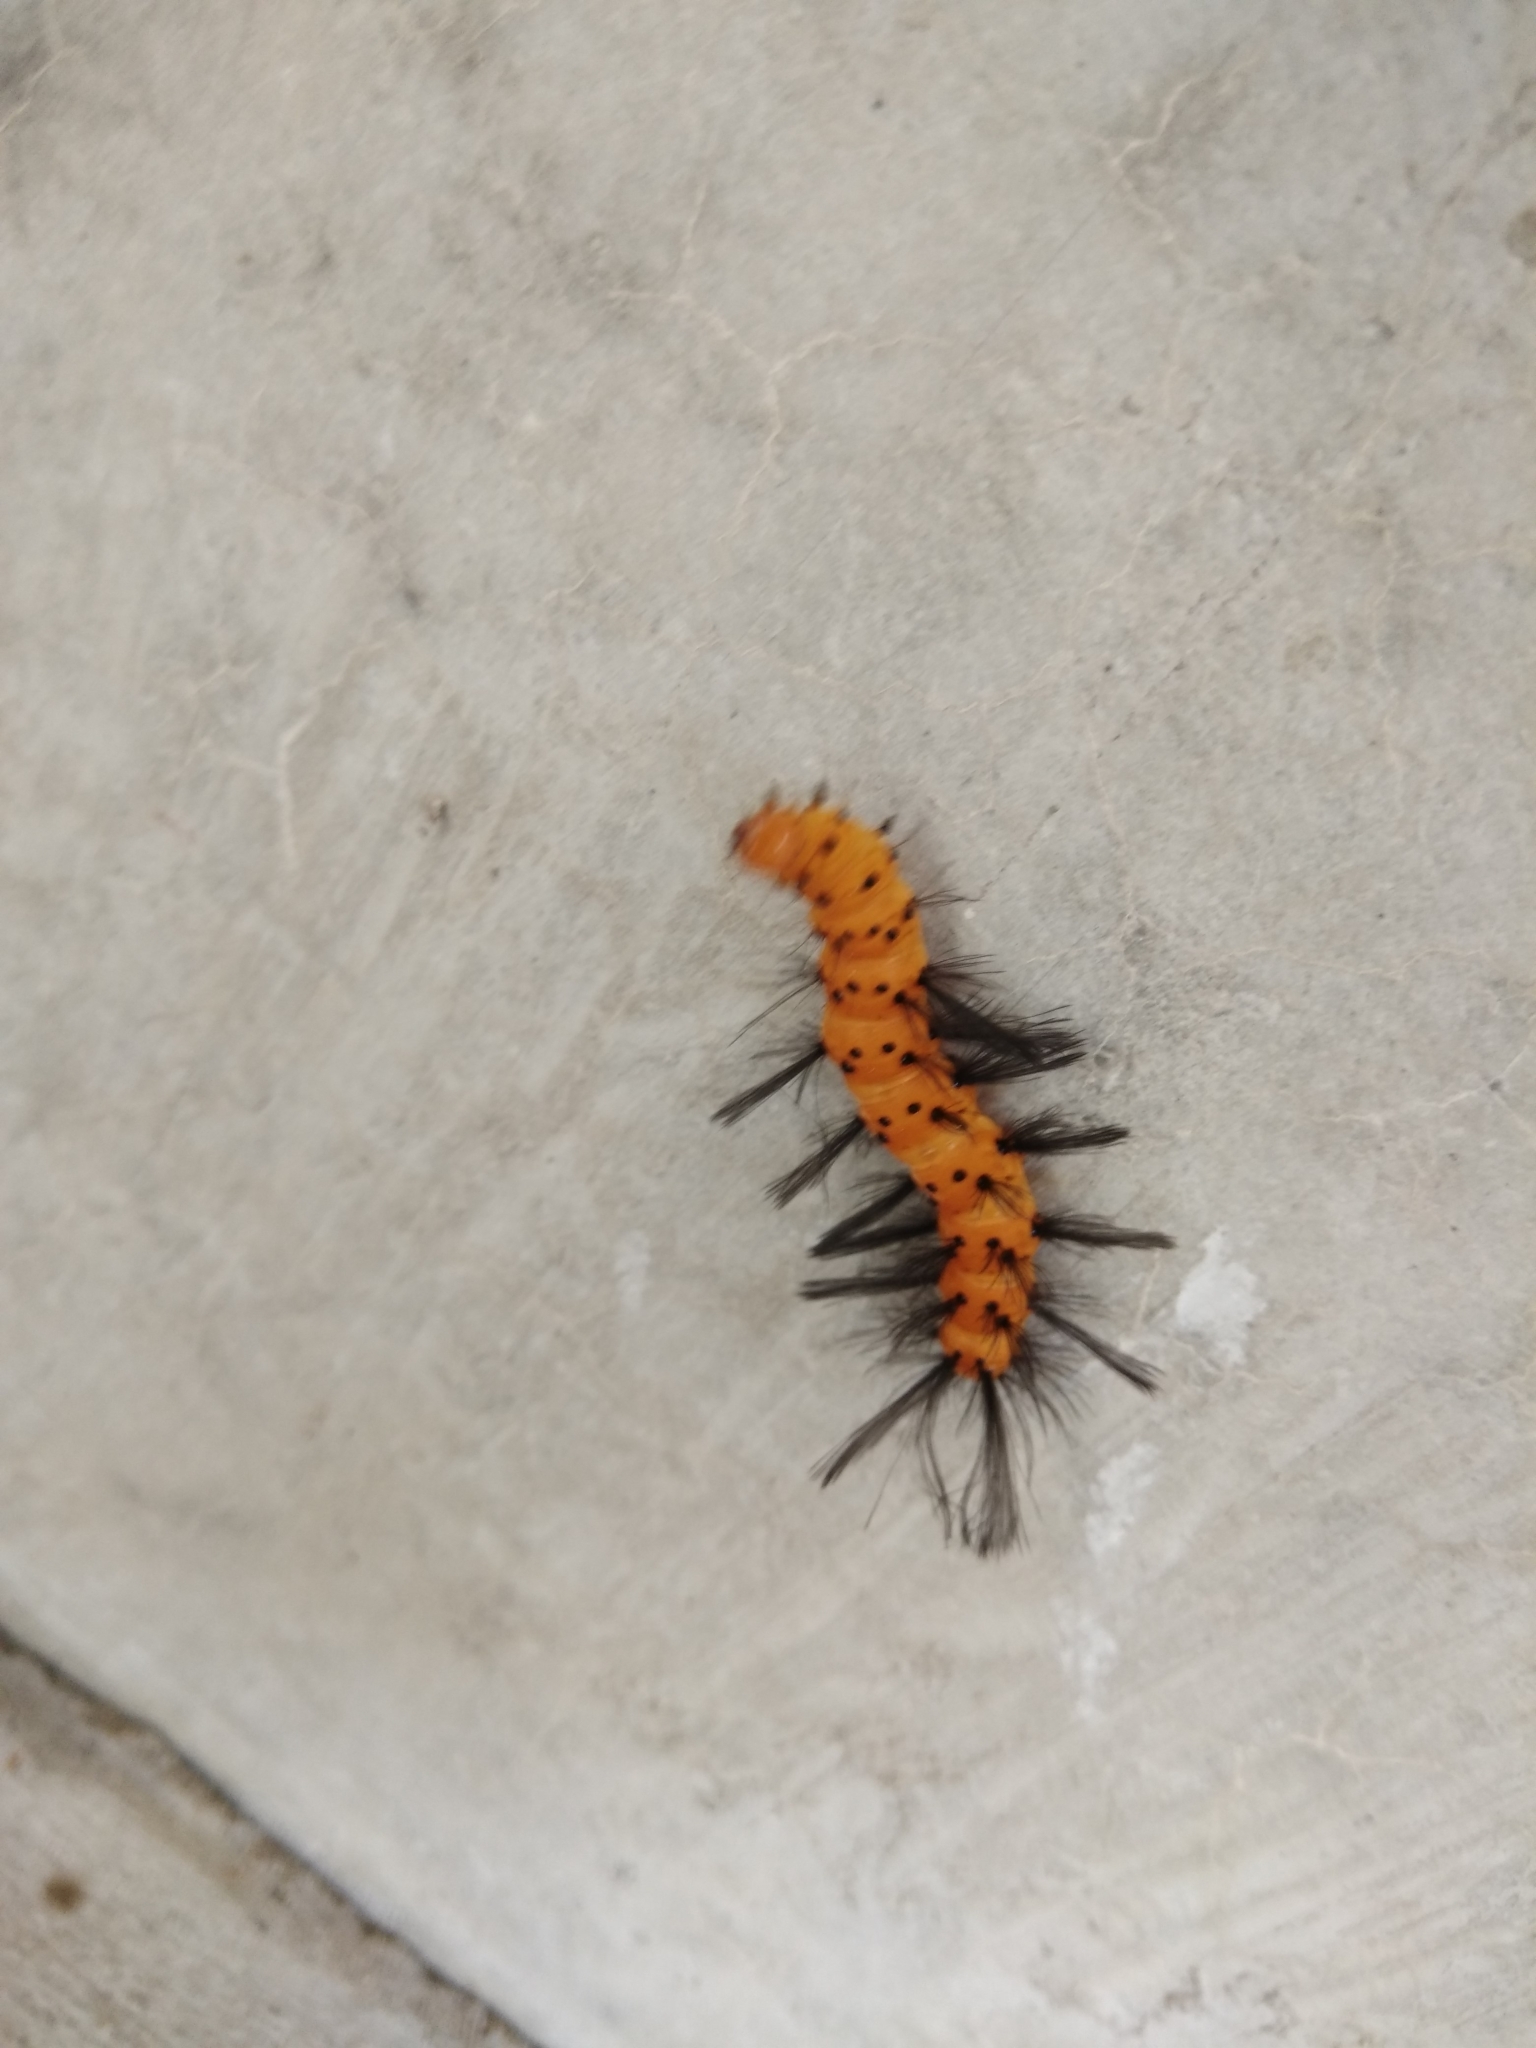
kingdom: Animalia
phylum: Arthropoda
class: Insecta
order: Lepidoptera
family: Erebidae
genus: Syntomeida
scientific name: Syntomeida epilais
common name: Polka-dot wasp moth
